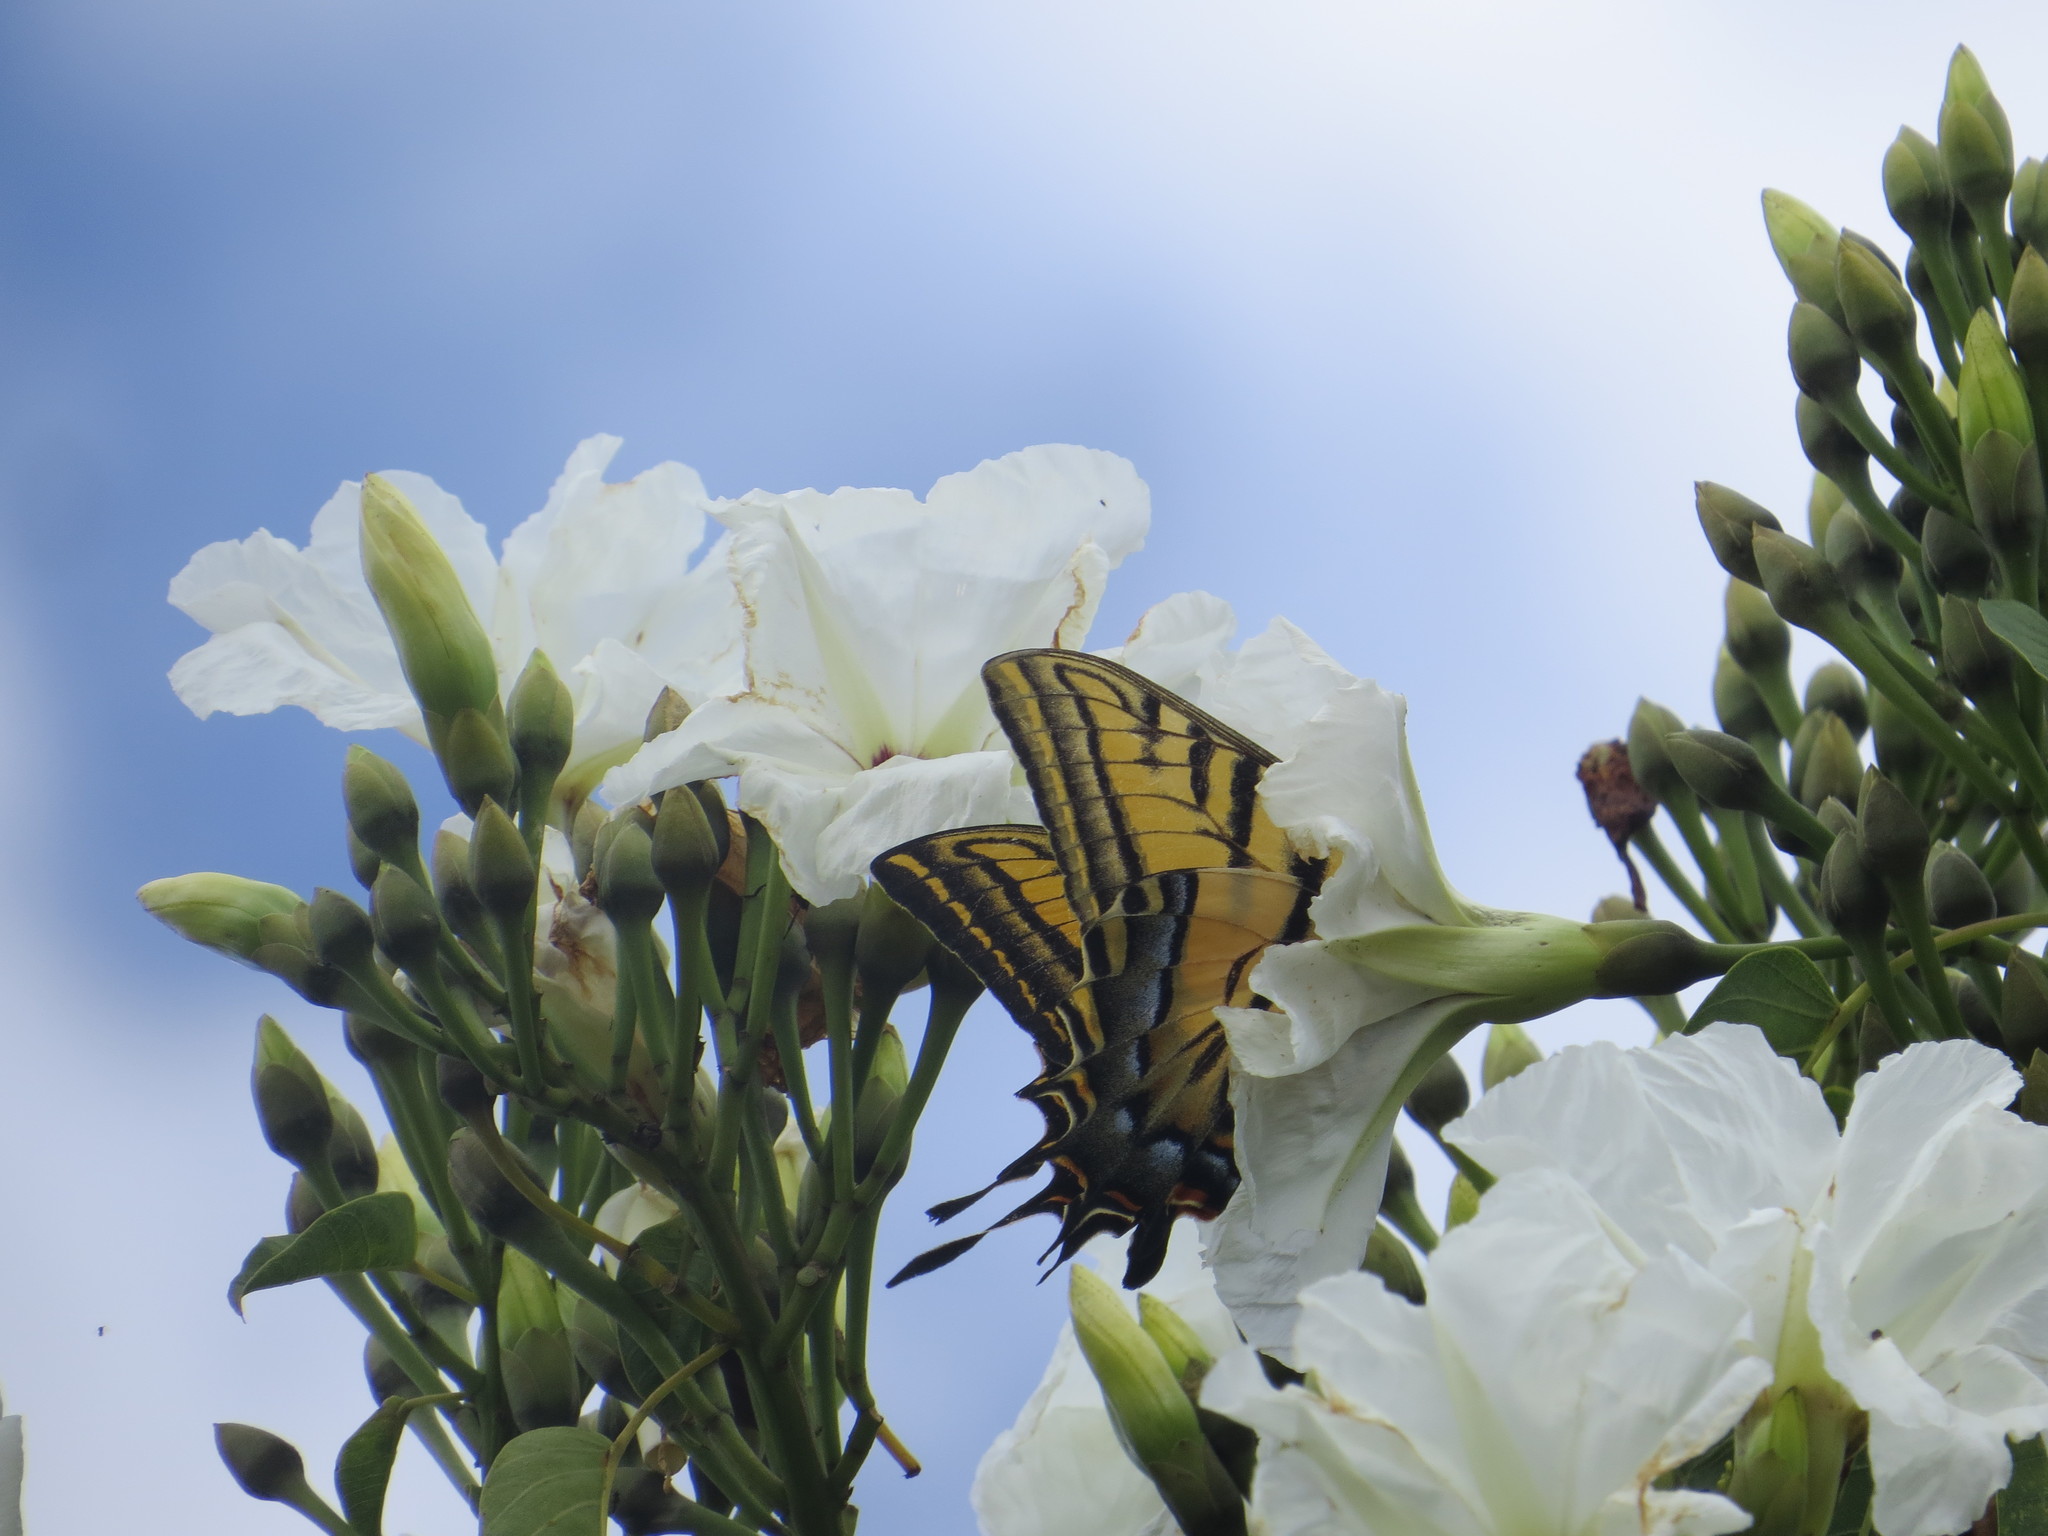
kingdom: Animalia
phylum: Arthropoda
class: Insecta
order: Lepidoptera
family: Papilionidae
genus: Papilio
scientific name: Papilio multicaudata
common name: Two-tailed tiger swallowtail
